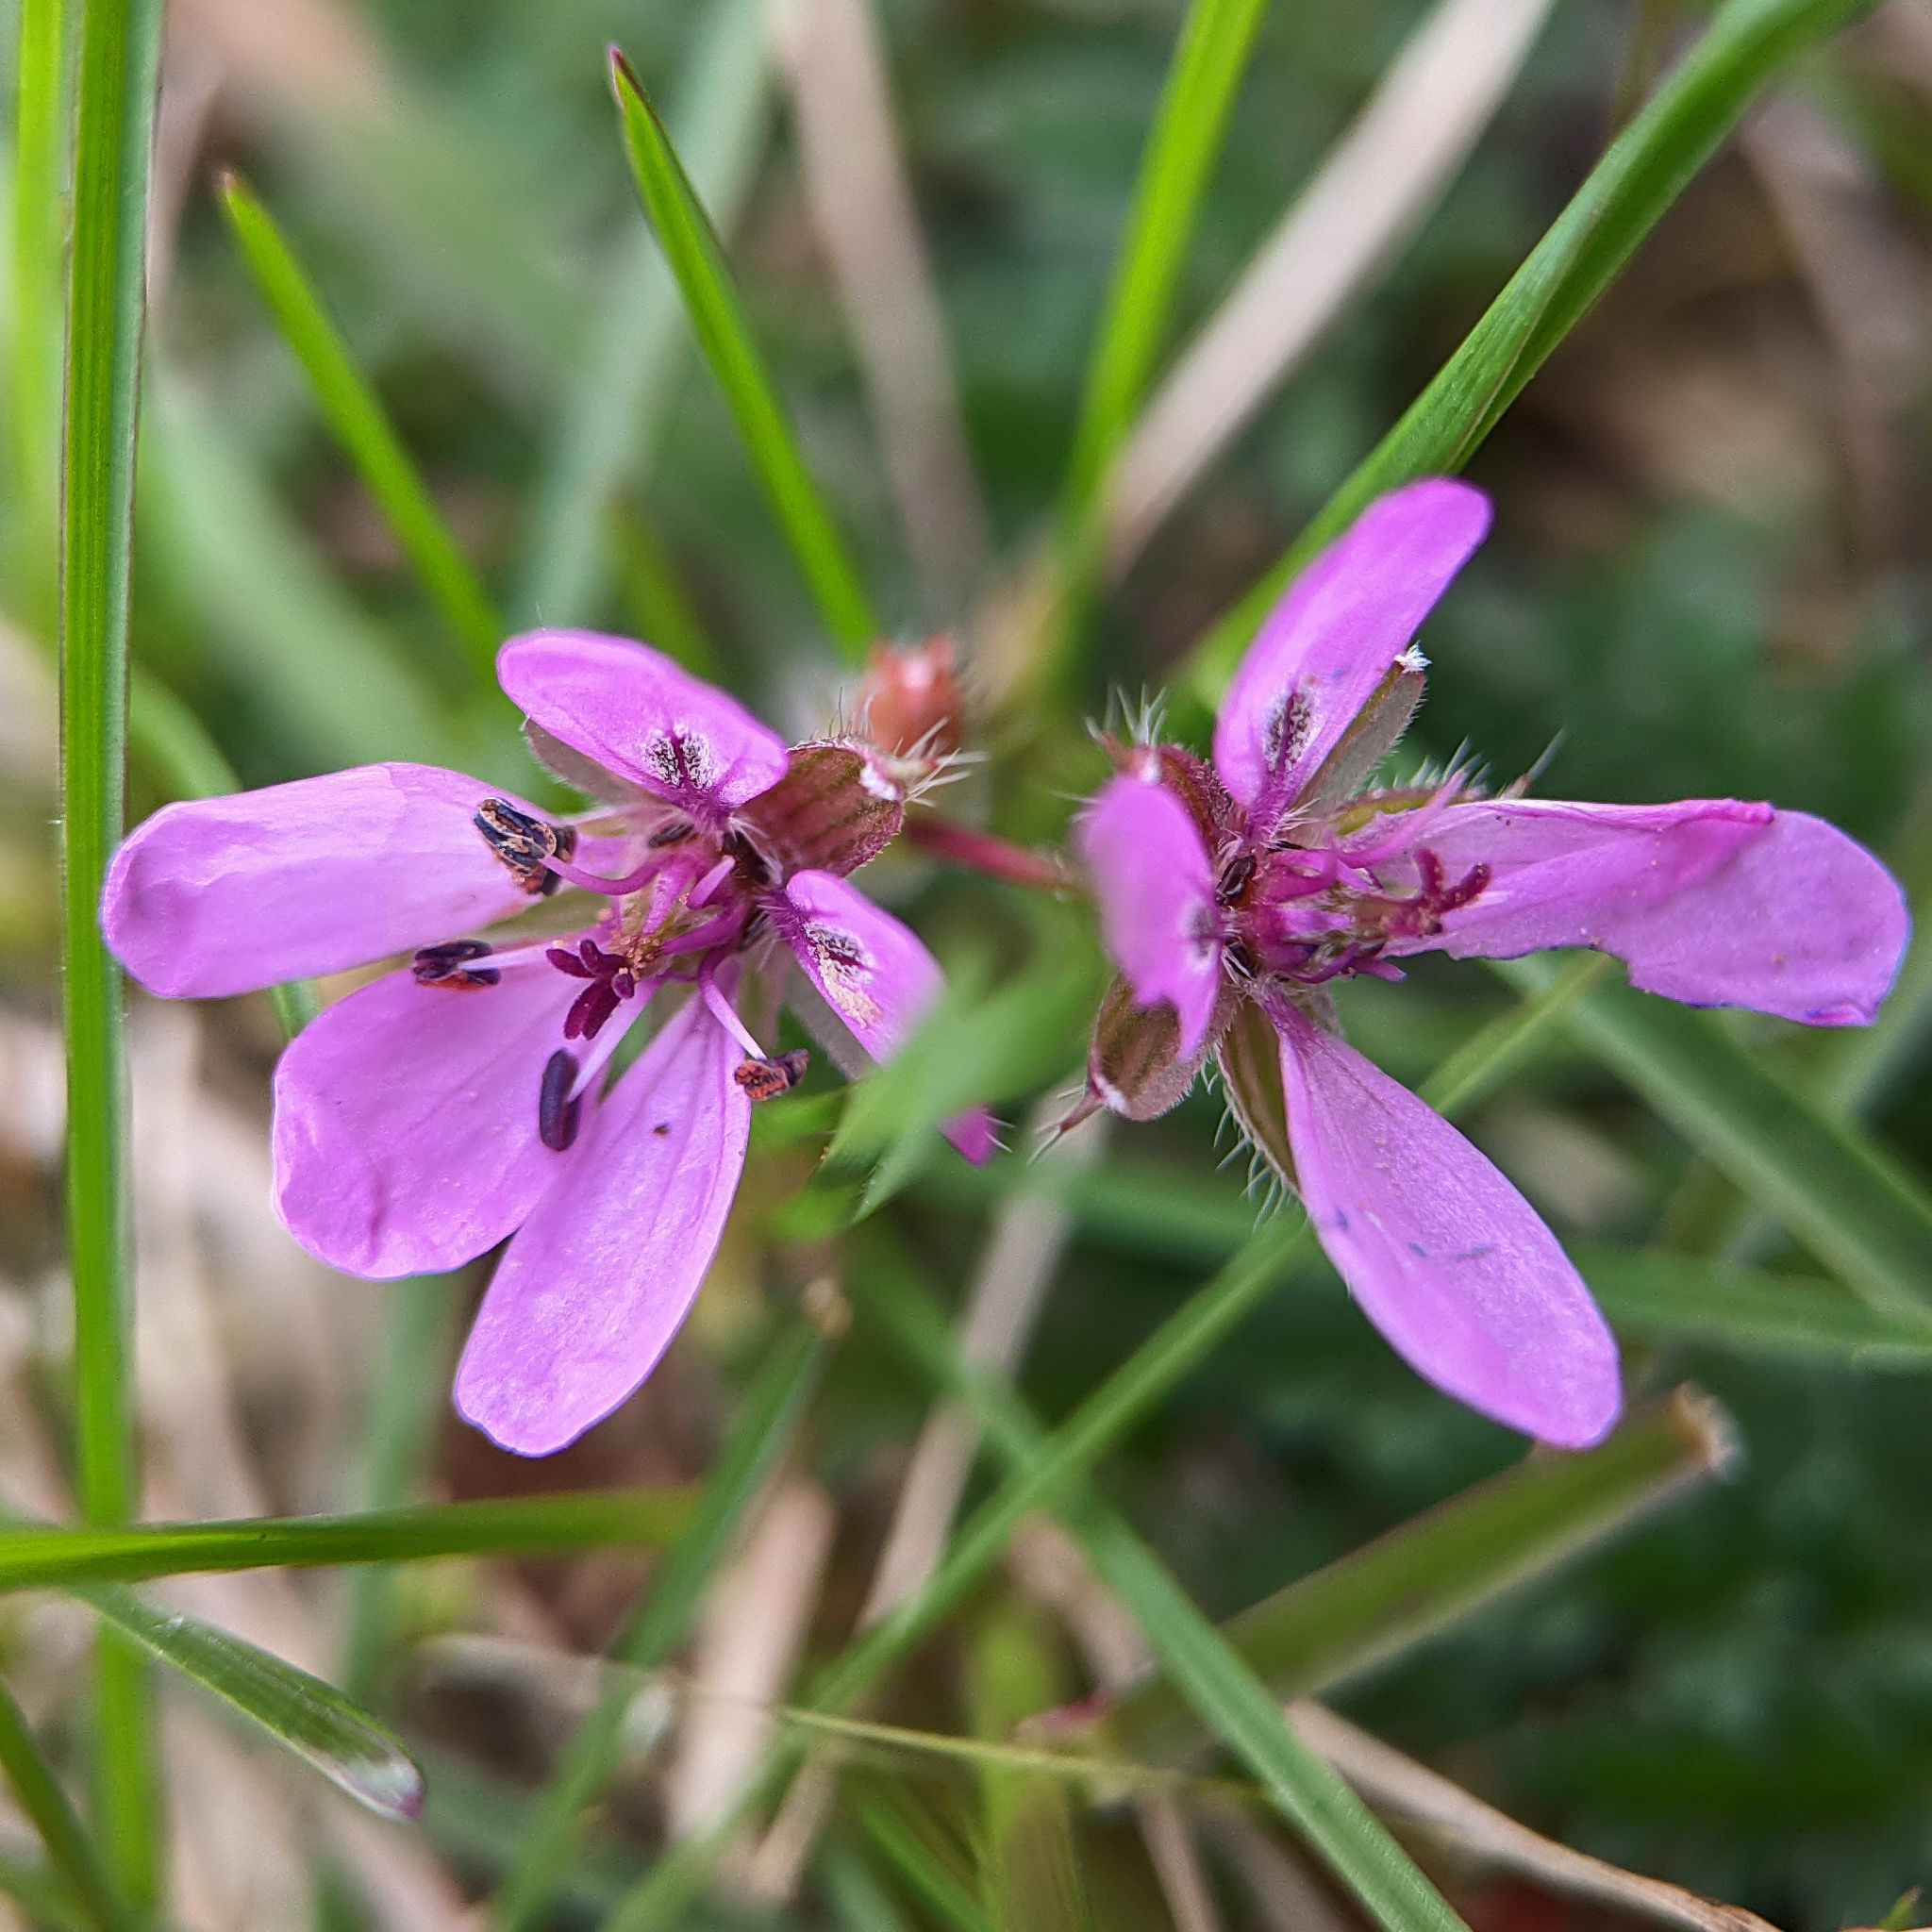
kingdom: Plantae
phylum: Tracheophyta
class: Magnoliopsida
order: Geraniales
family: Geraniaceae
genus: Erodium
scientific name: Erodium cicutarium
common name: Common stork's-bill
